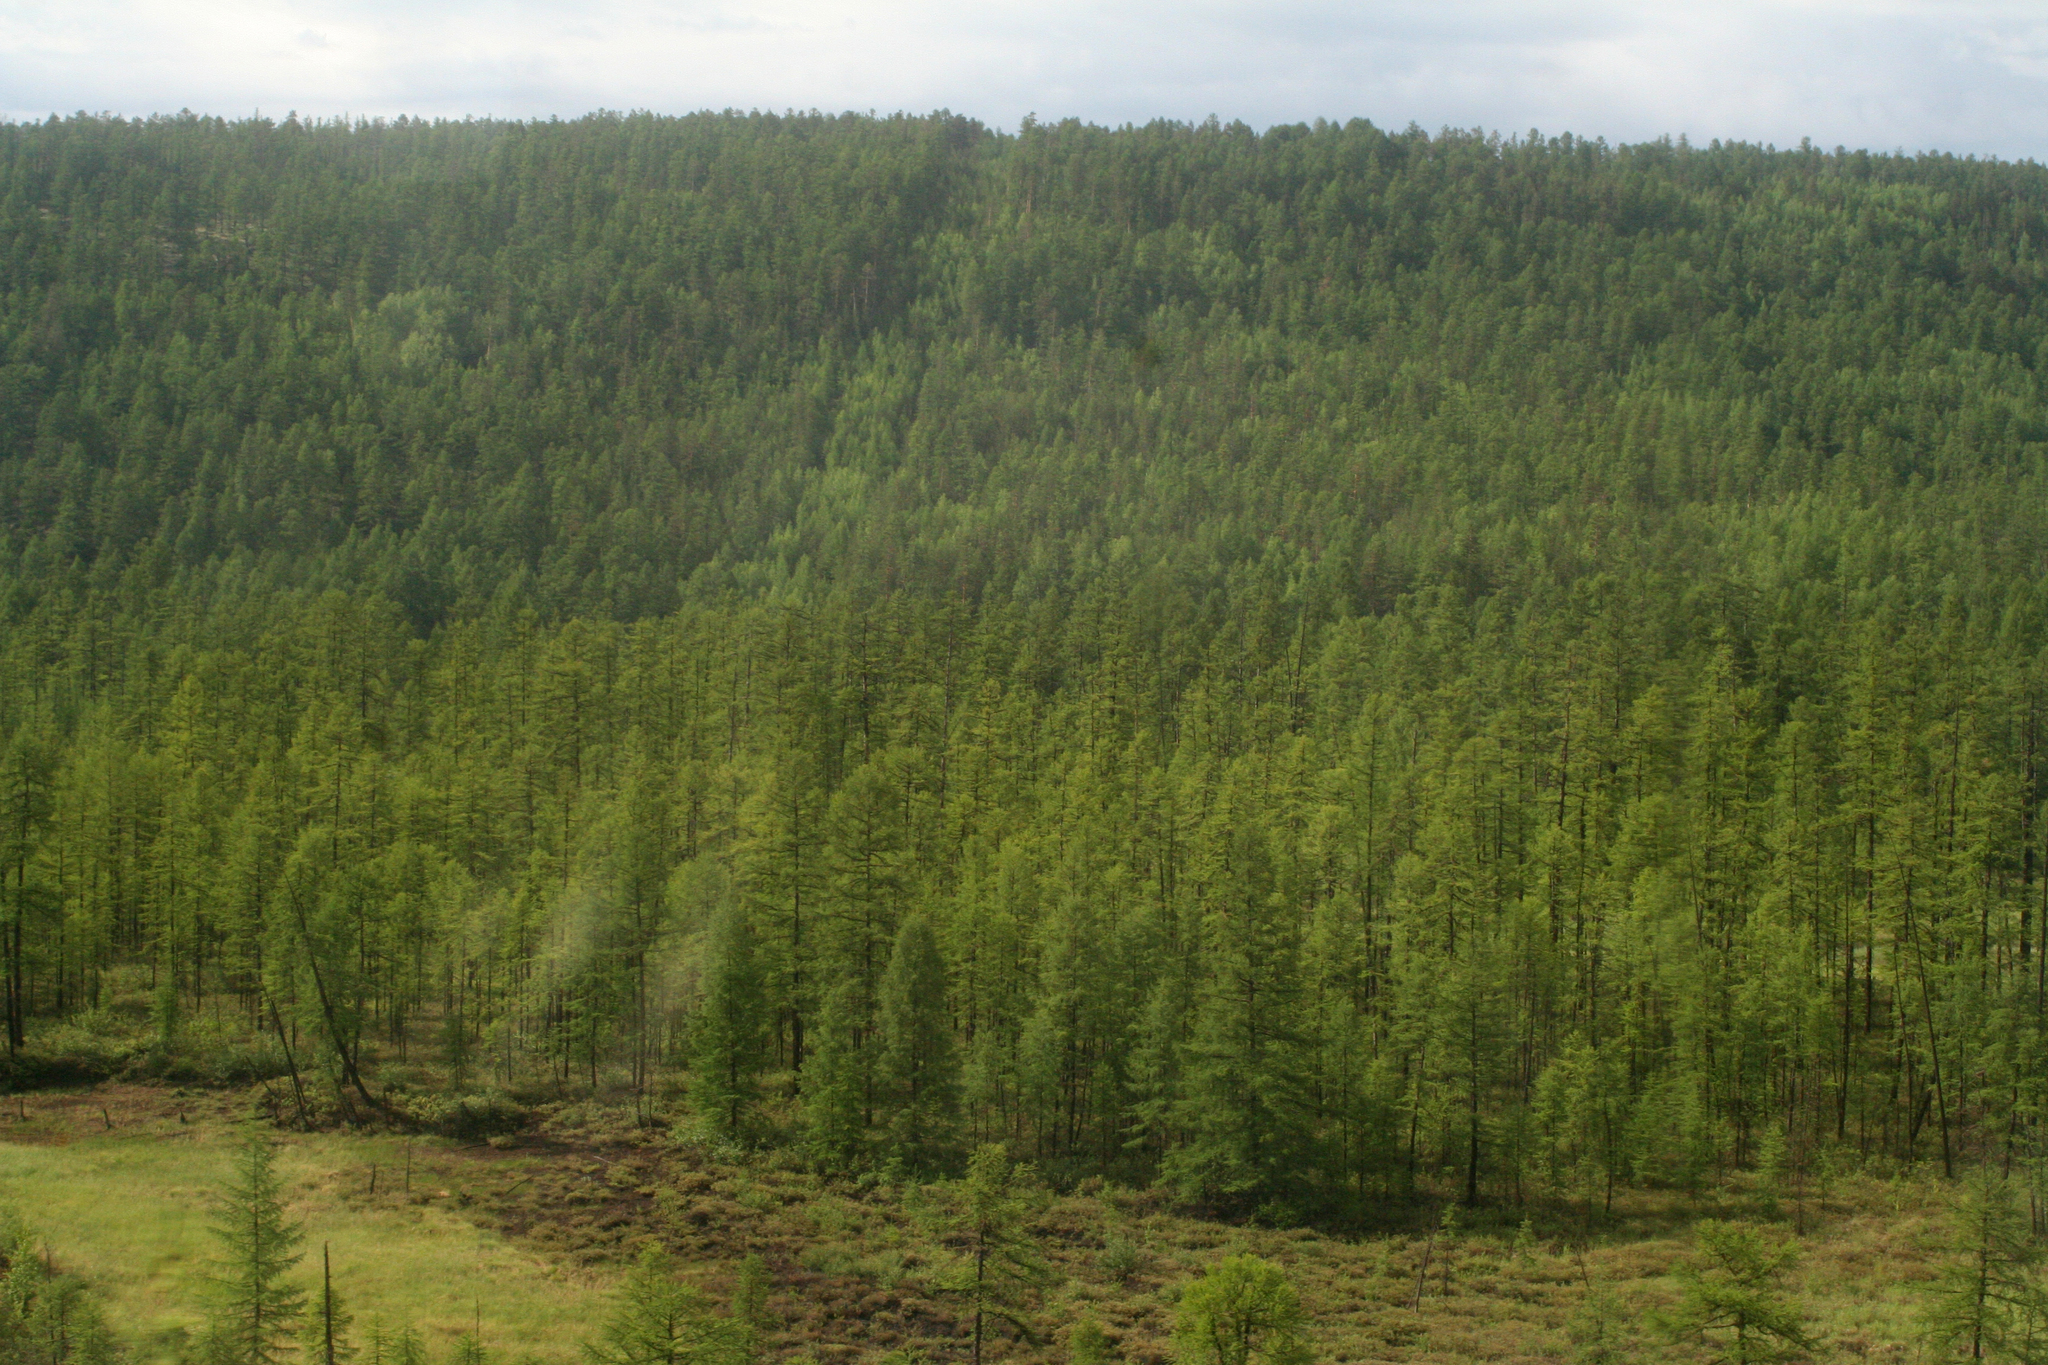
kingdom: Plantae
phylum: Tracheophyta
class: Pinopsida
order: Pinales
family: Pinaceae
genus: Larix
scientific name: Larix gmelinii
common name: Dahurian larch
